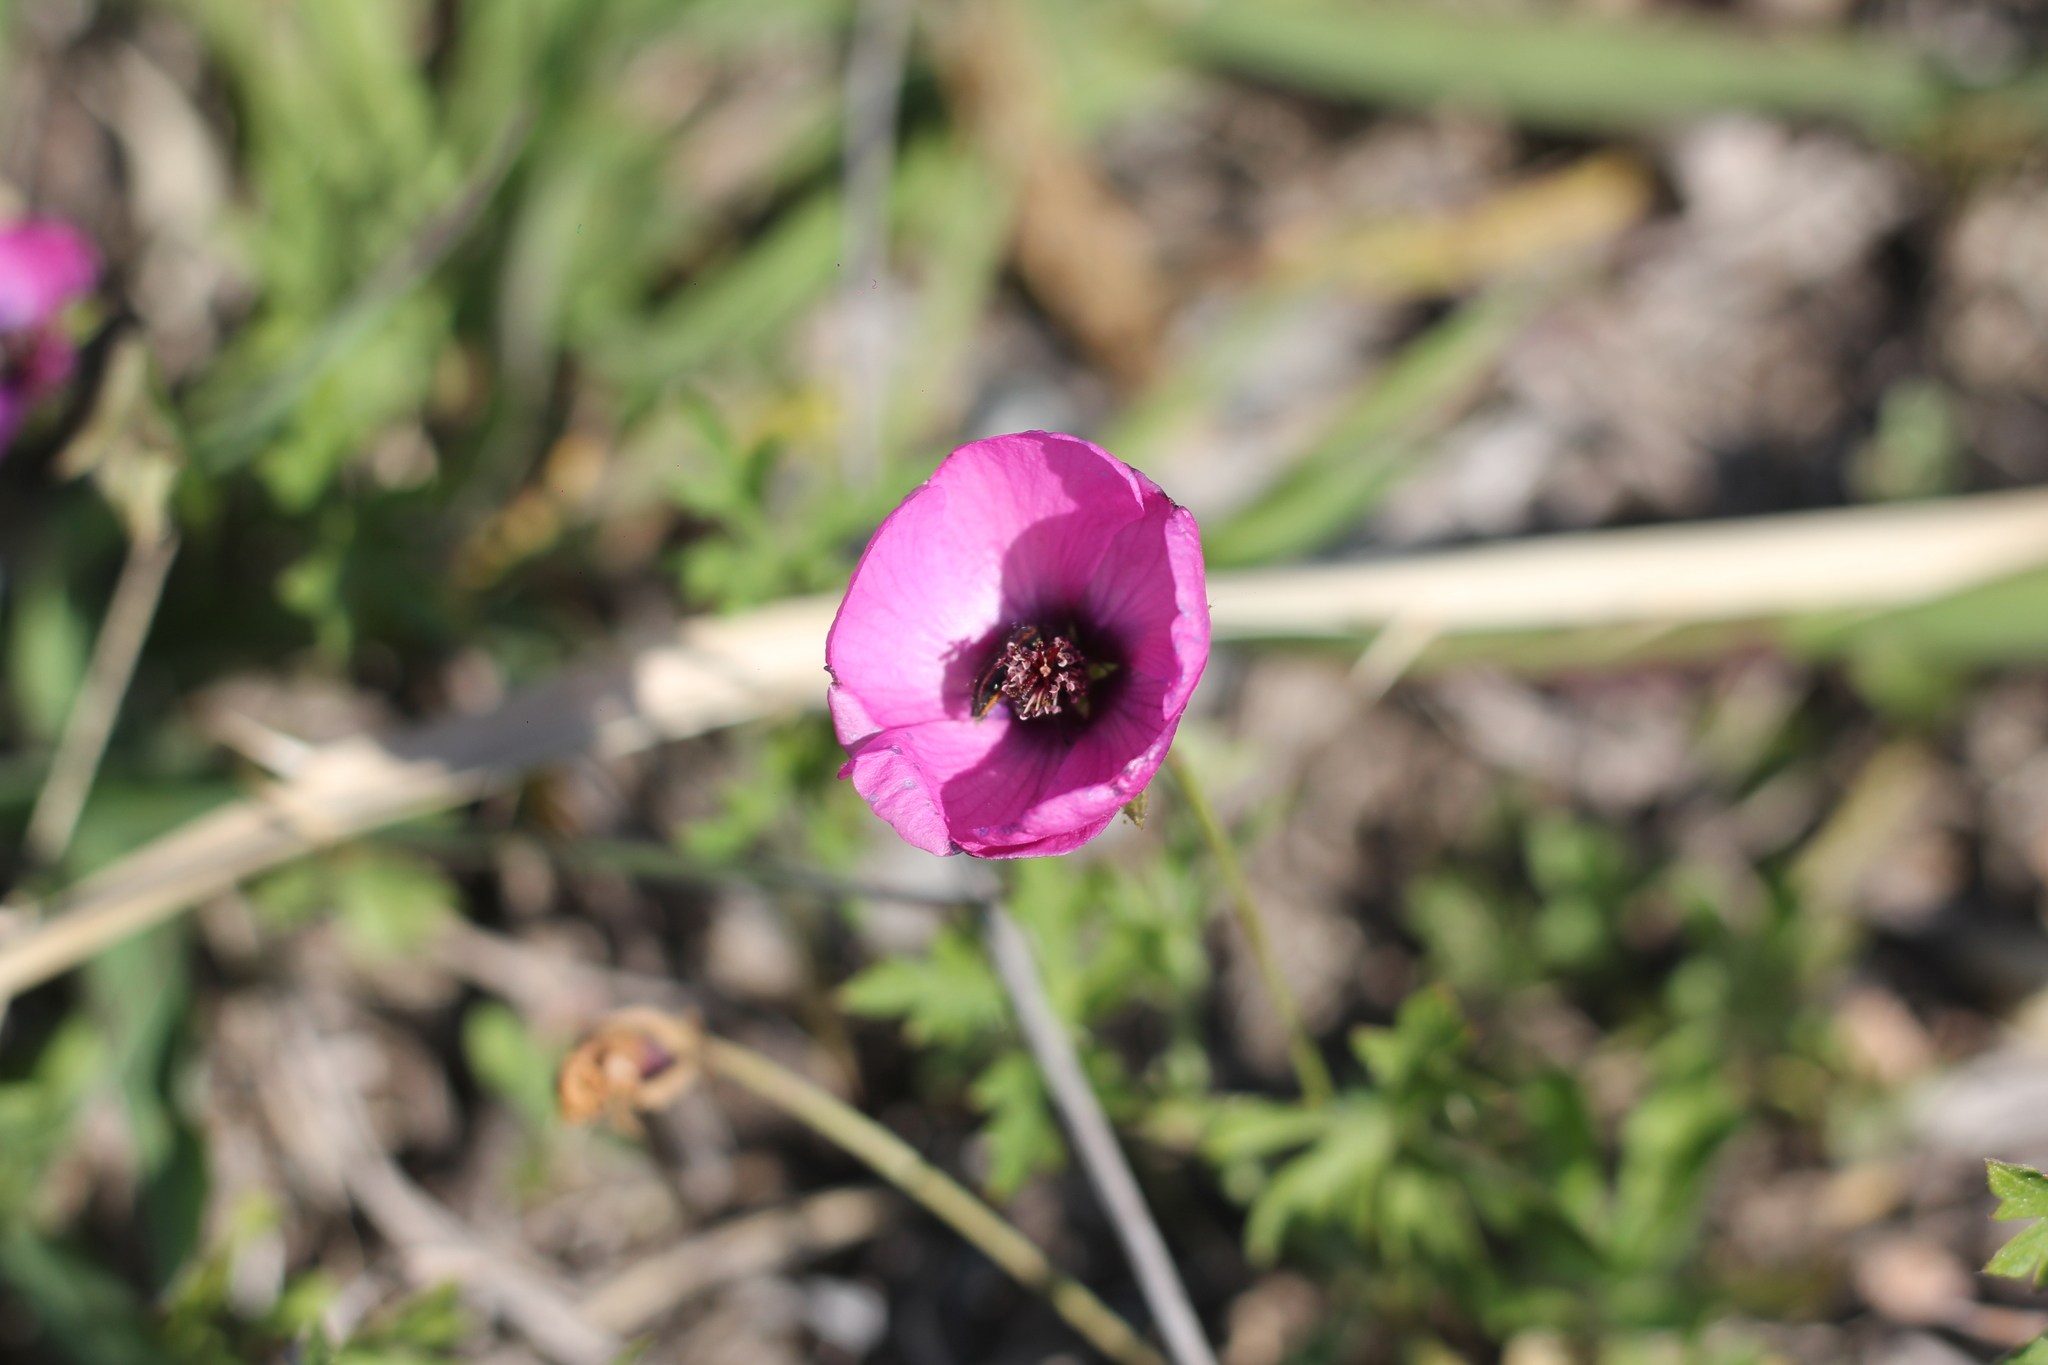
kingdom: Plantae
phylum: Tracheophyta
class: Magnoliopsida
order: Malvales
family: Malvaceae
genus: Modiolastrum
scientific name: Modiolastrum gilliesii
